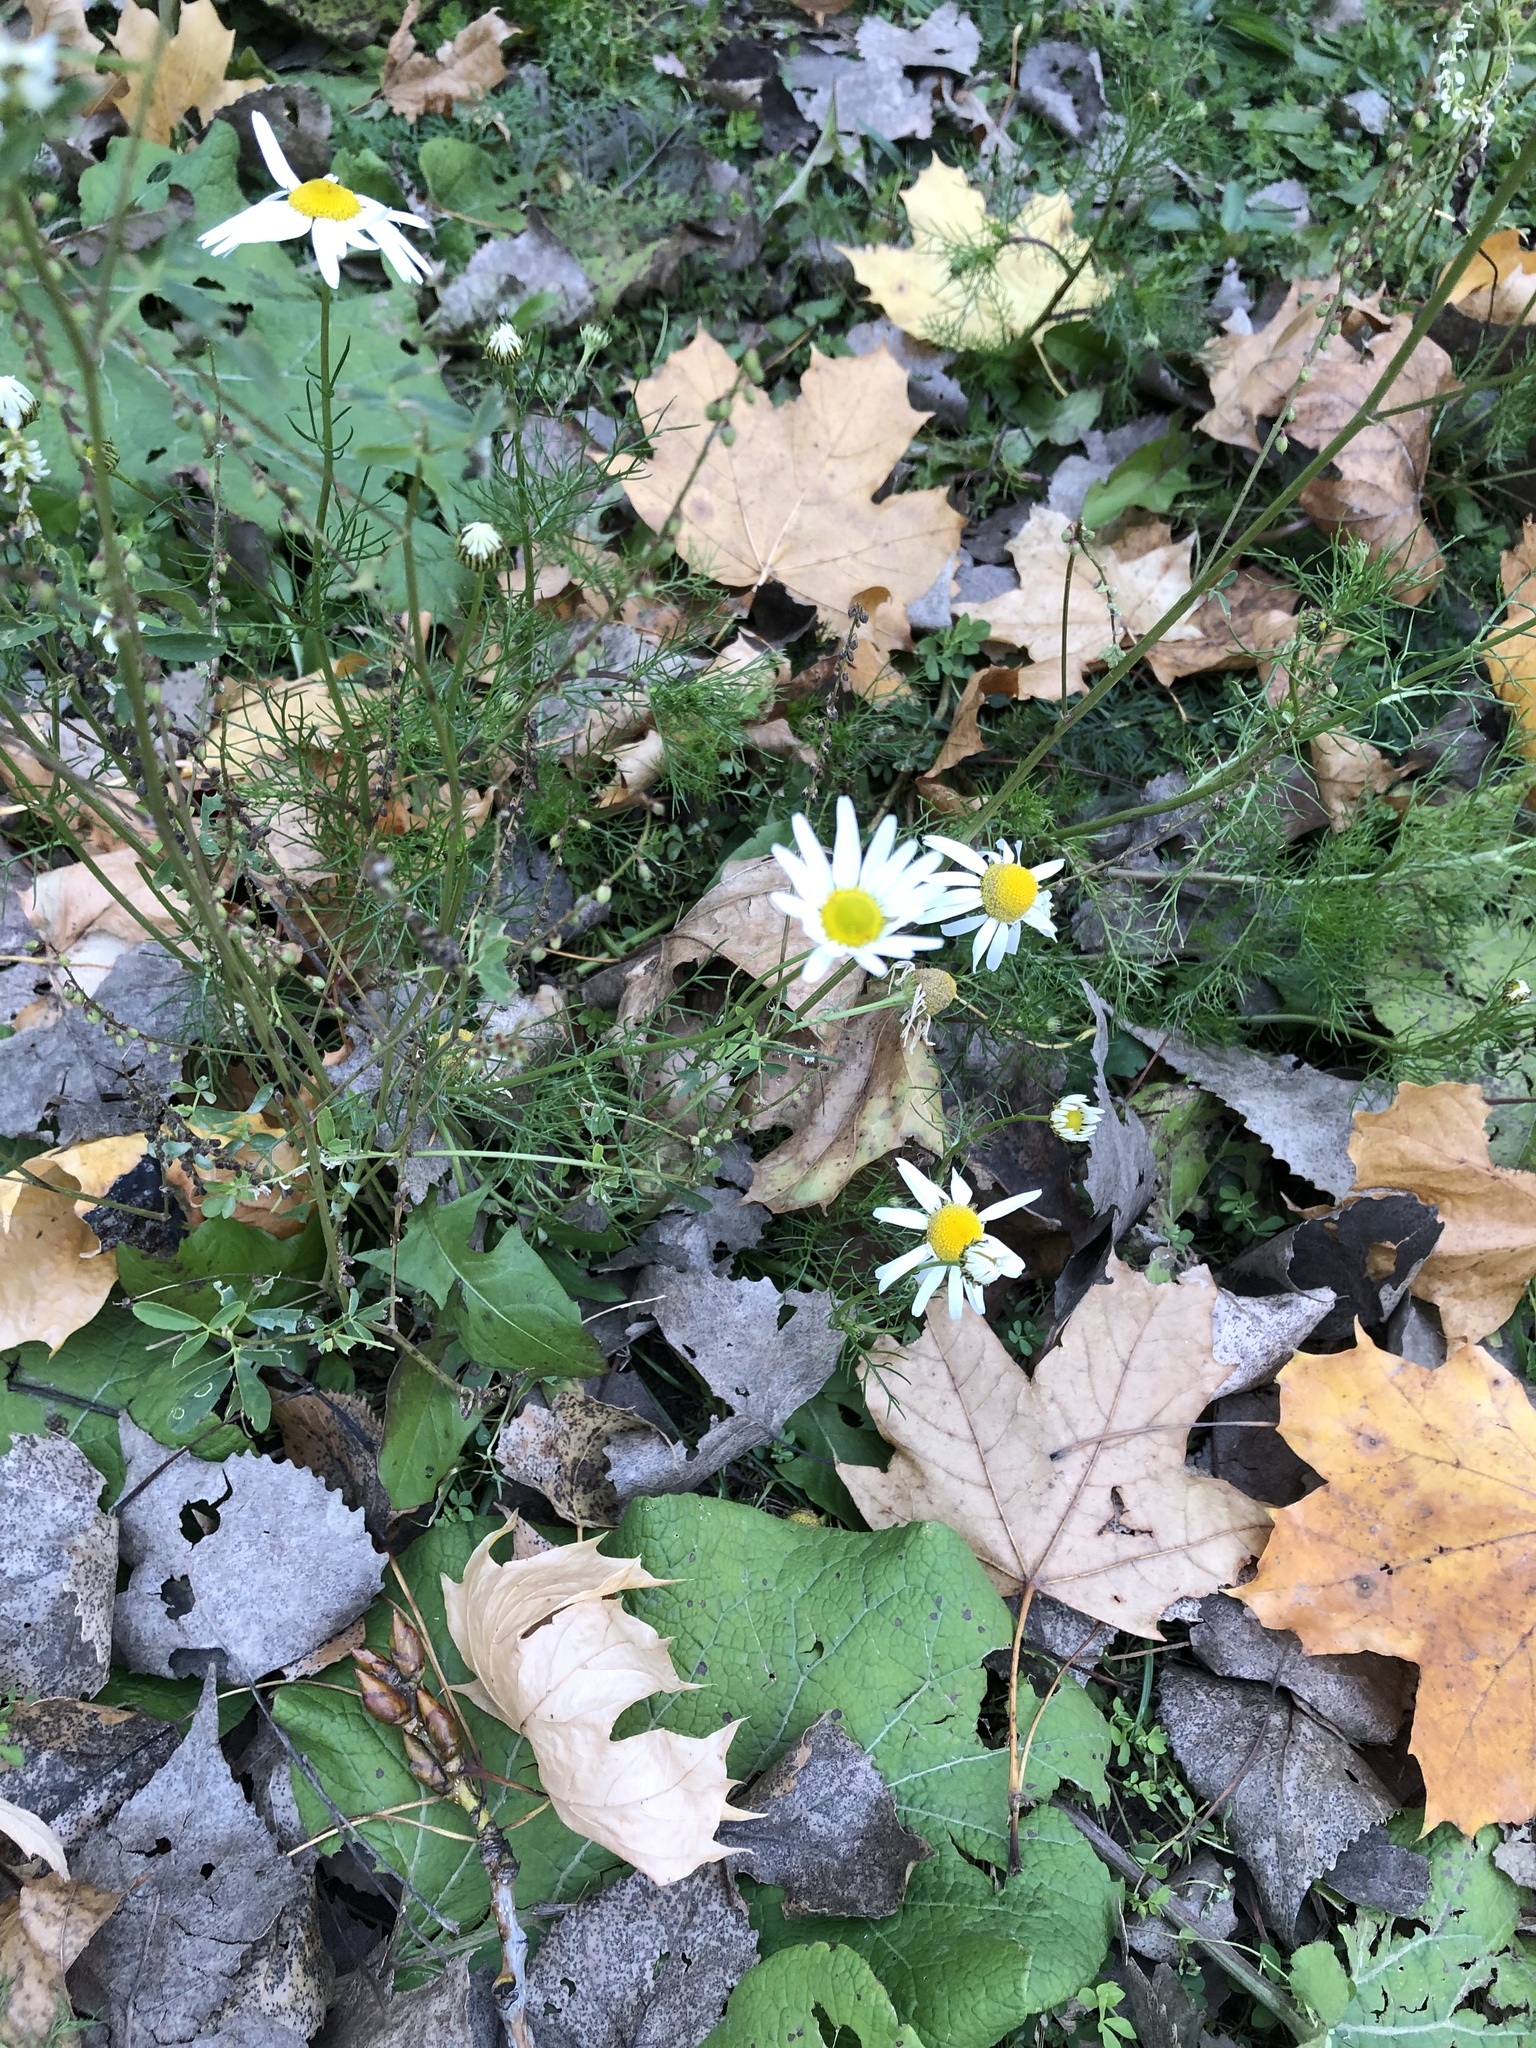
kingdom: Plantae
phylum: Tracheophyta
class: Magnoliopsida
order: Asterales
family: Asteraceae
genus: Tripleurospermum
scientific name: Tripleurospermum inodorum
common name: Scentless mayweed
